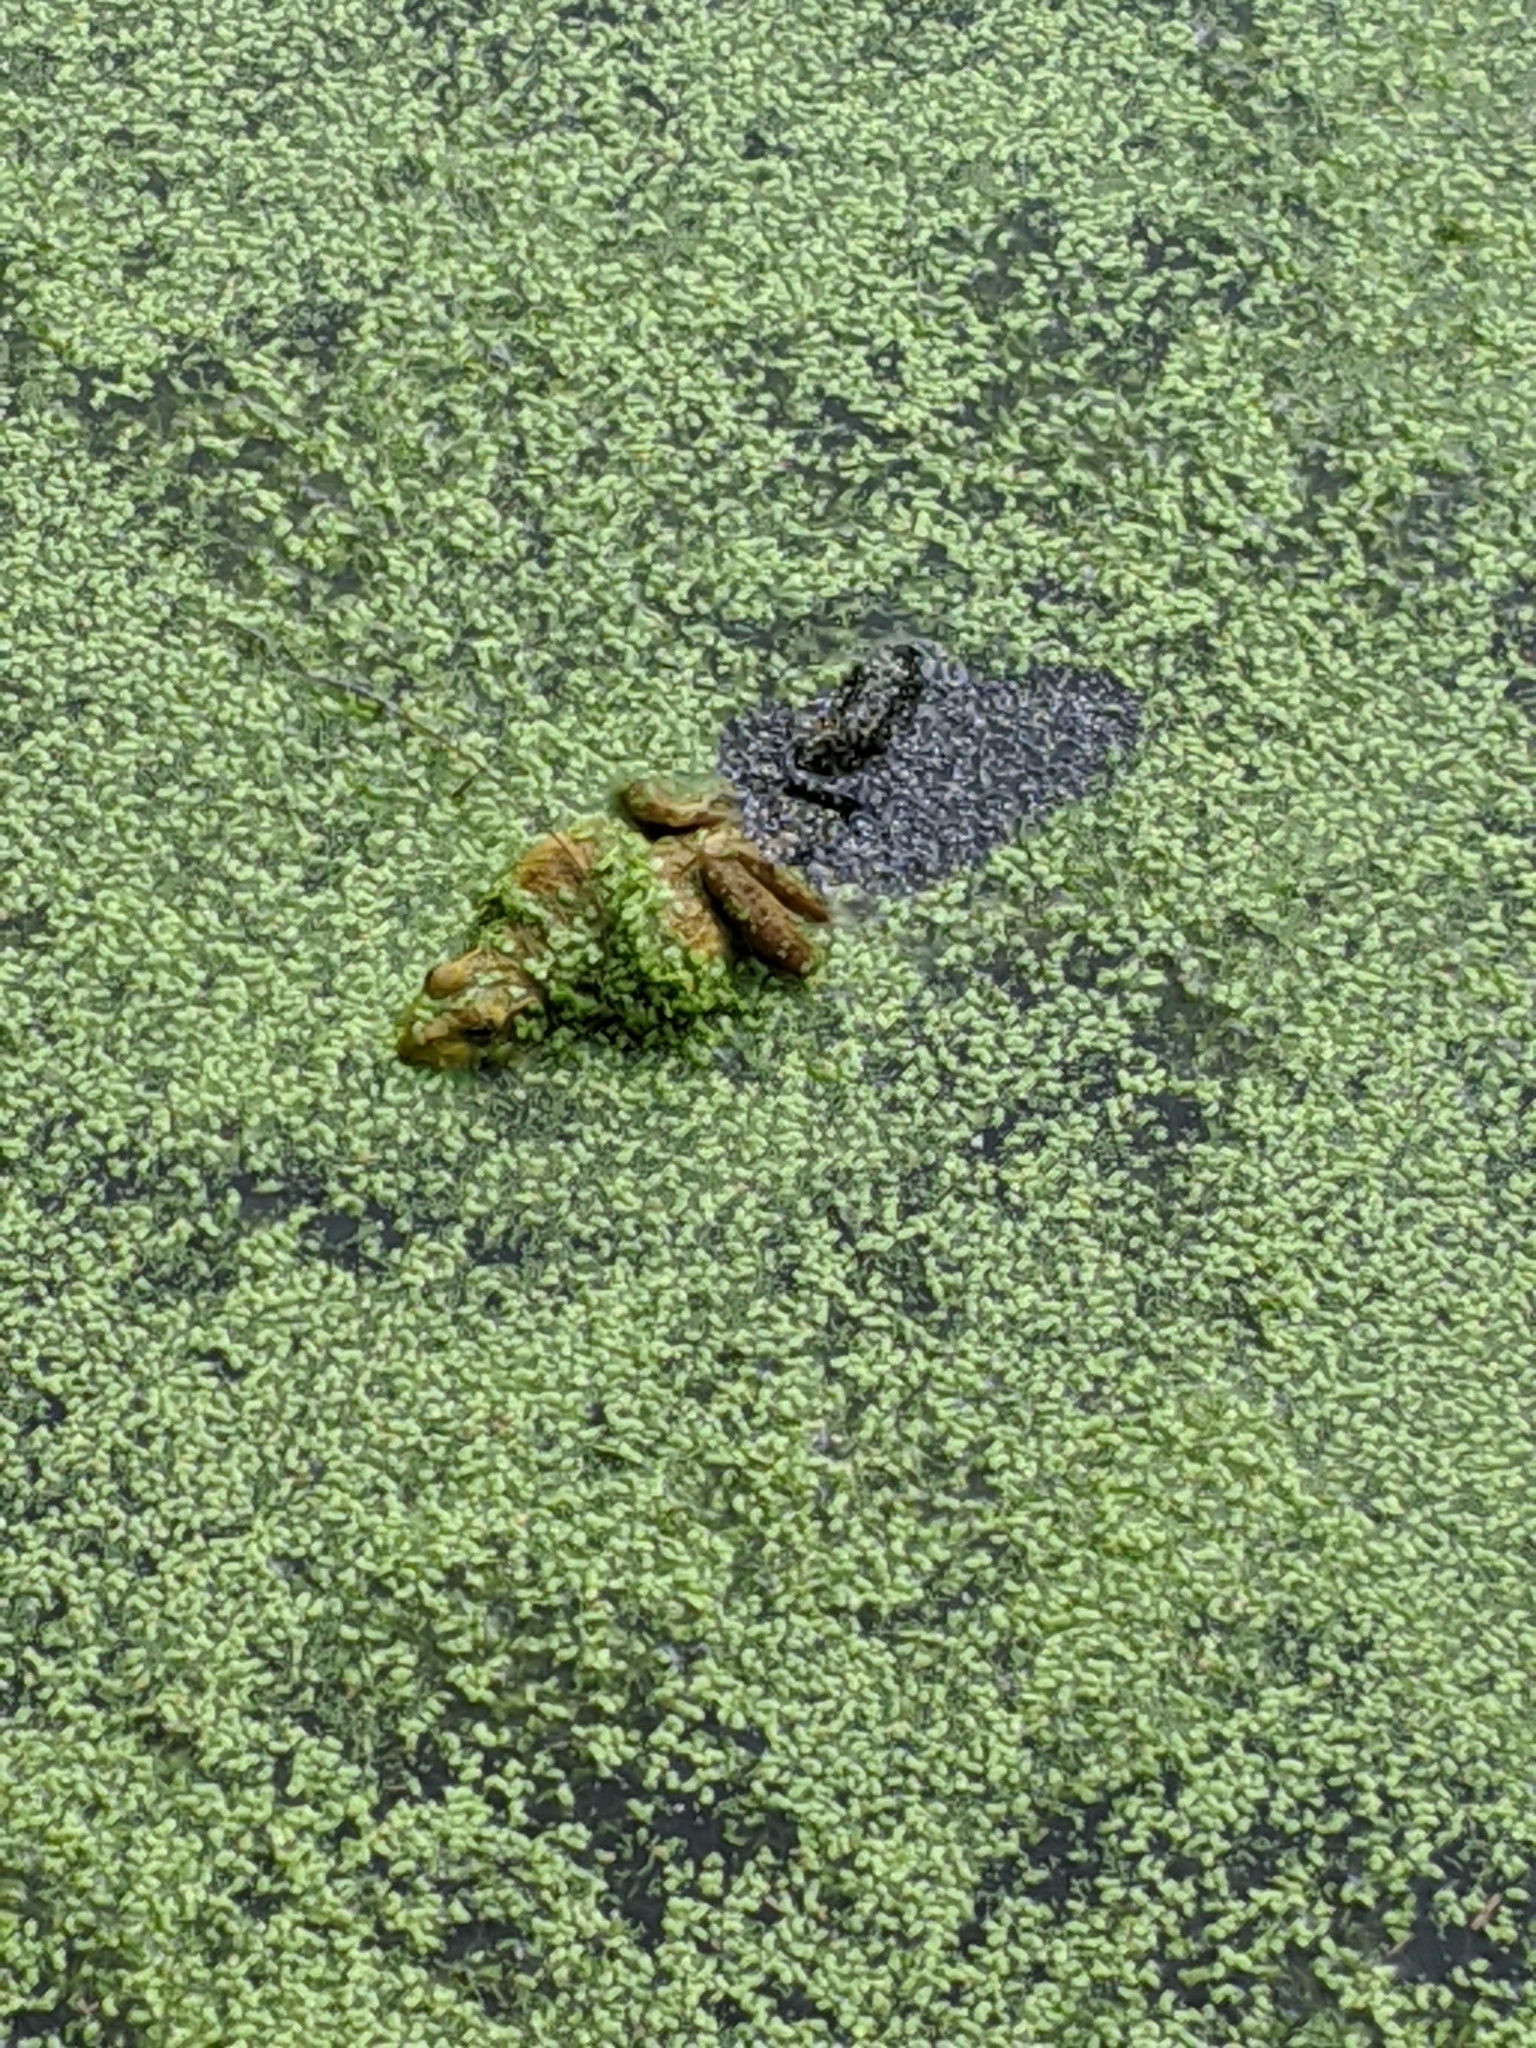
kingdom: Animalia
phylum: Chordata
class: Amphibia
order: Anura
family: Ranidae
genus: Lithobates
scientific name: Lithobates clamitans
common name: Green frog
